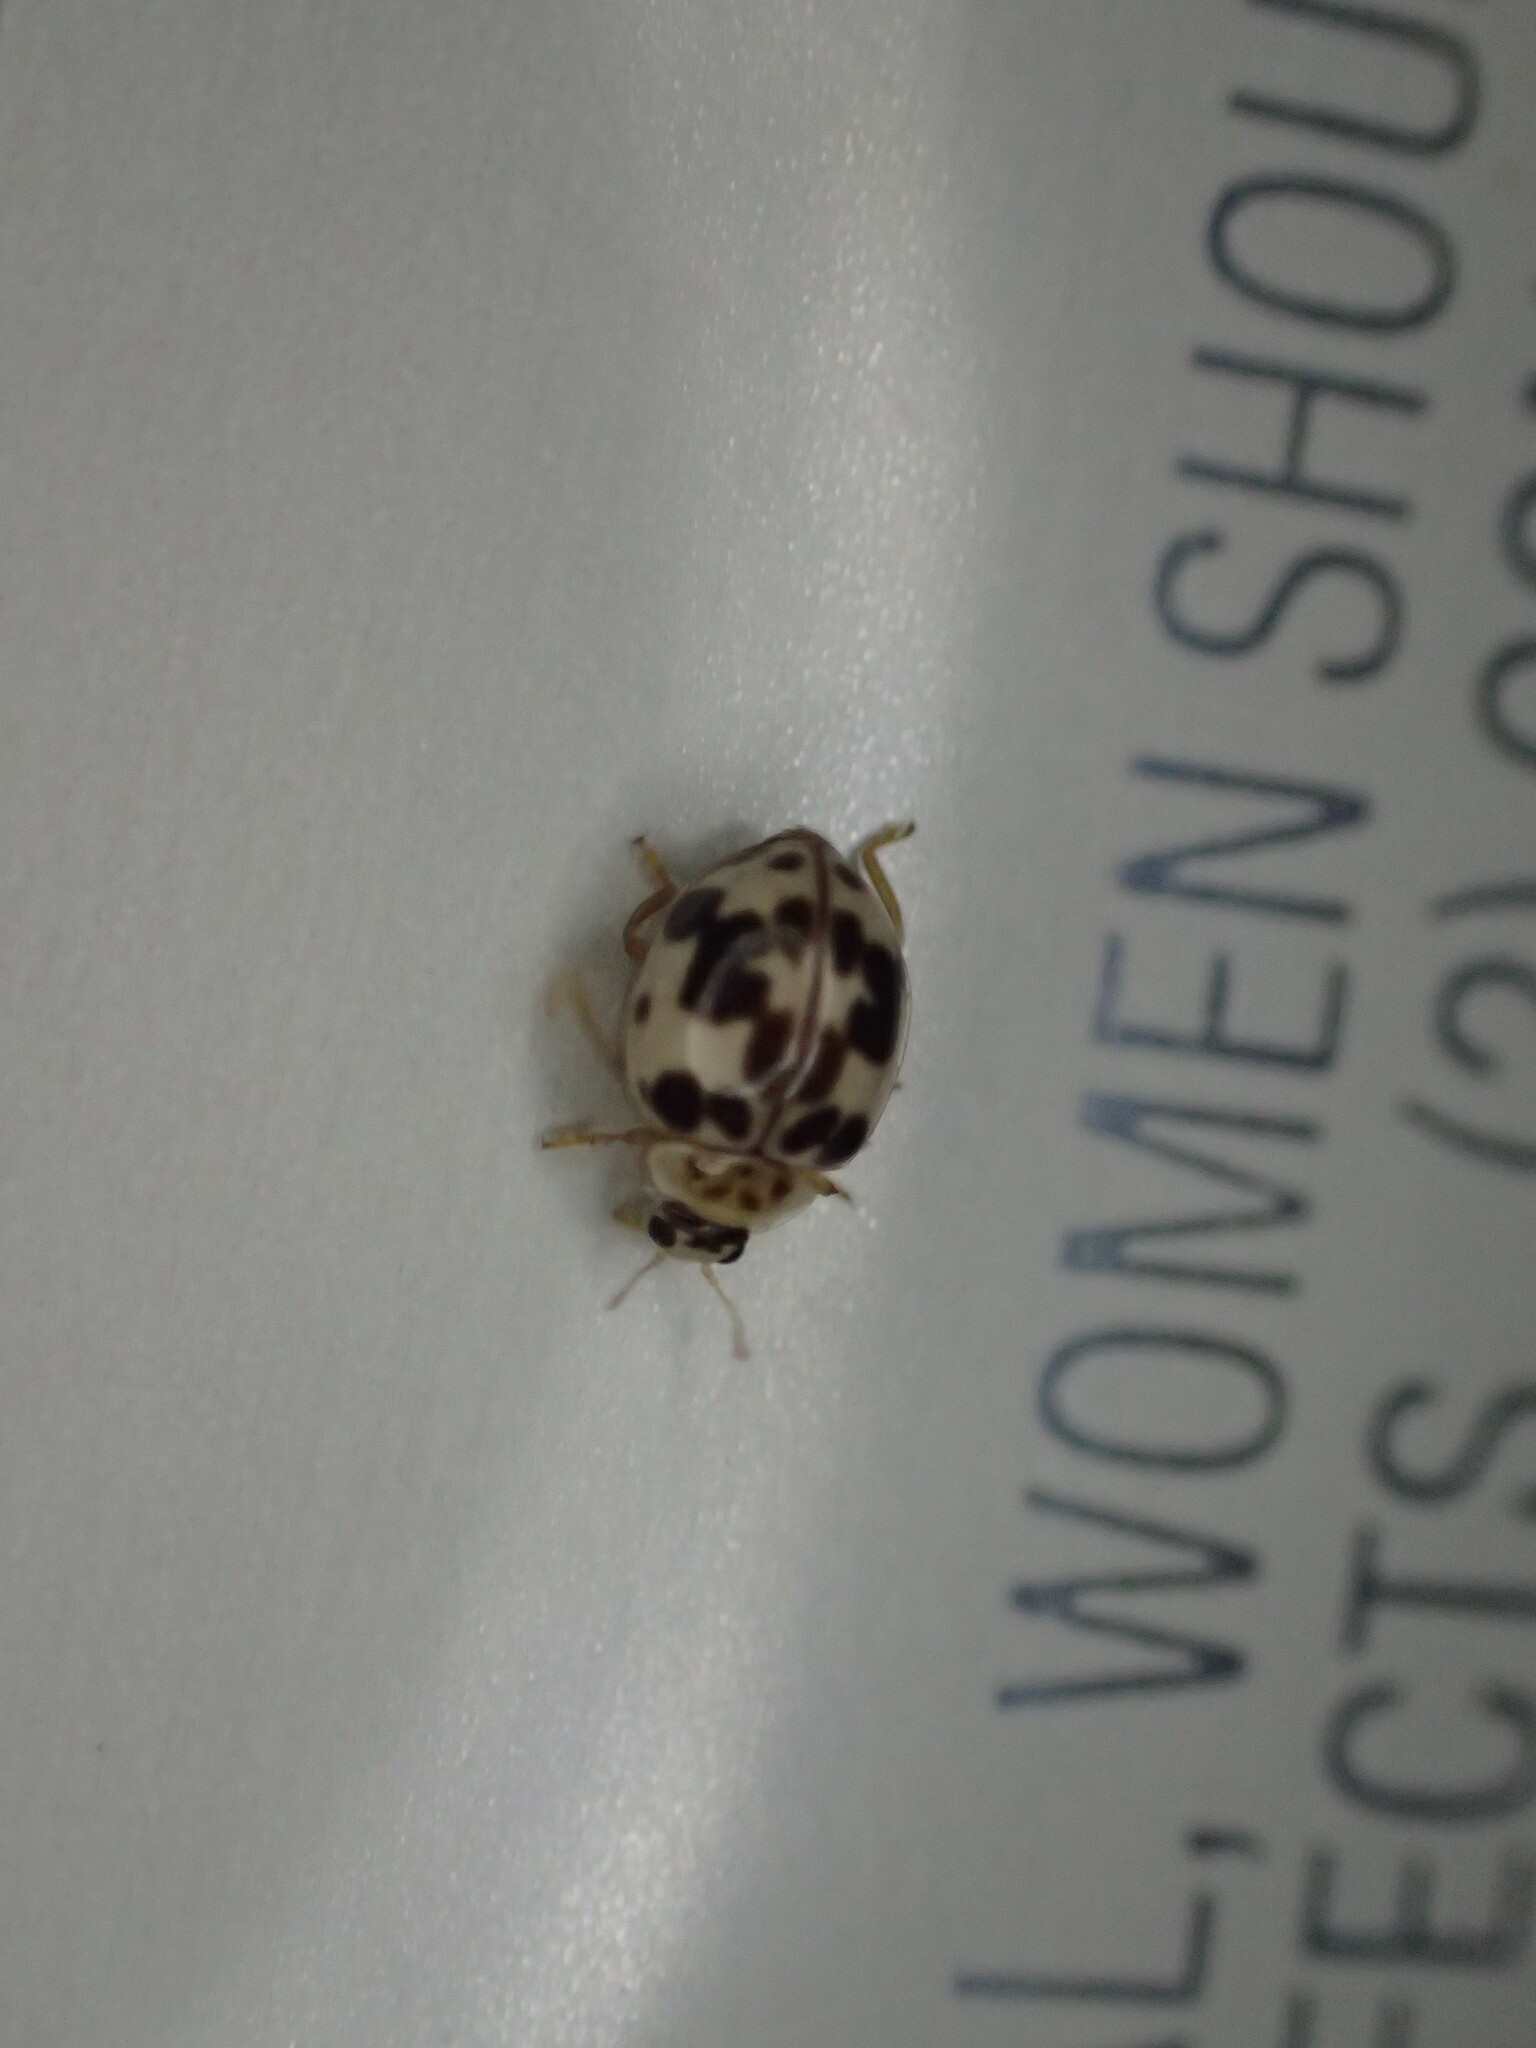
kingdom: Animalia
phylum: Arthropoda
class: Insecta
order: Coleoptera
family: Coccinellidae
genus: Psyllobora
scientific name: Psyllobora borealis
